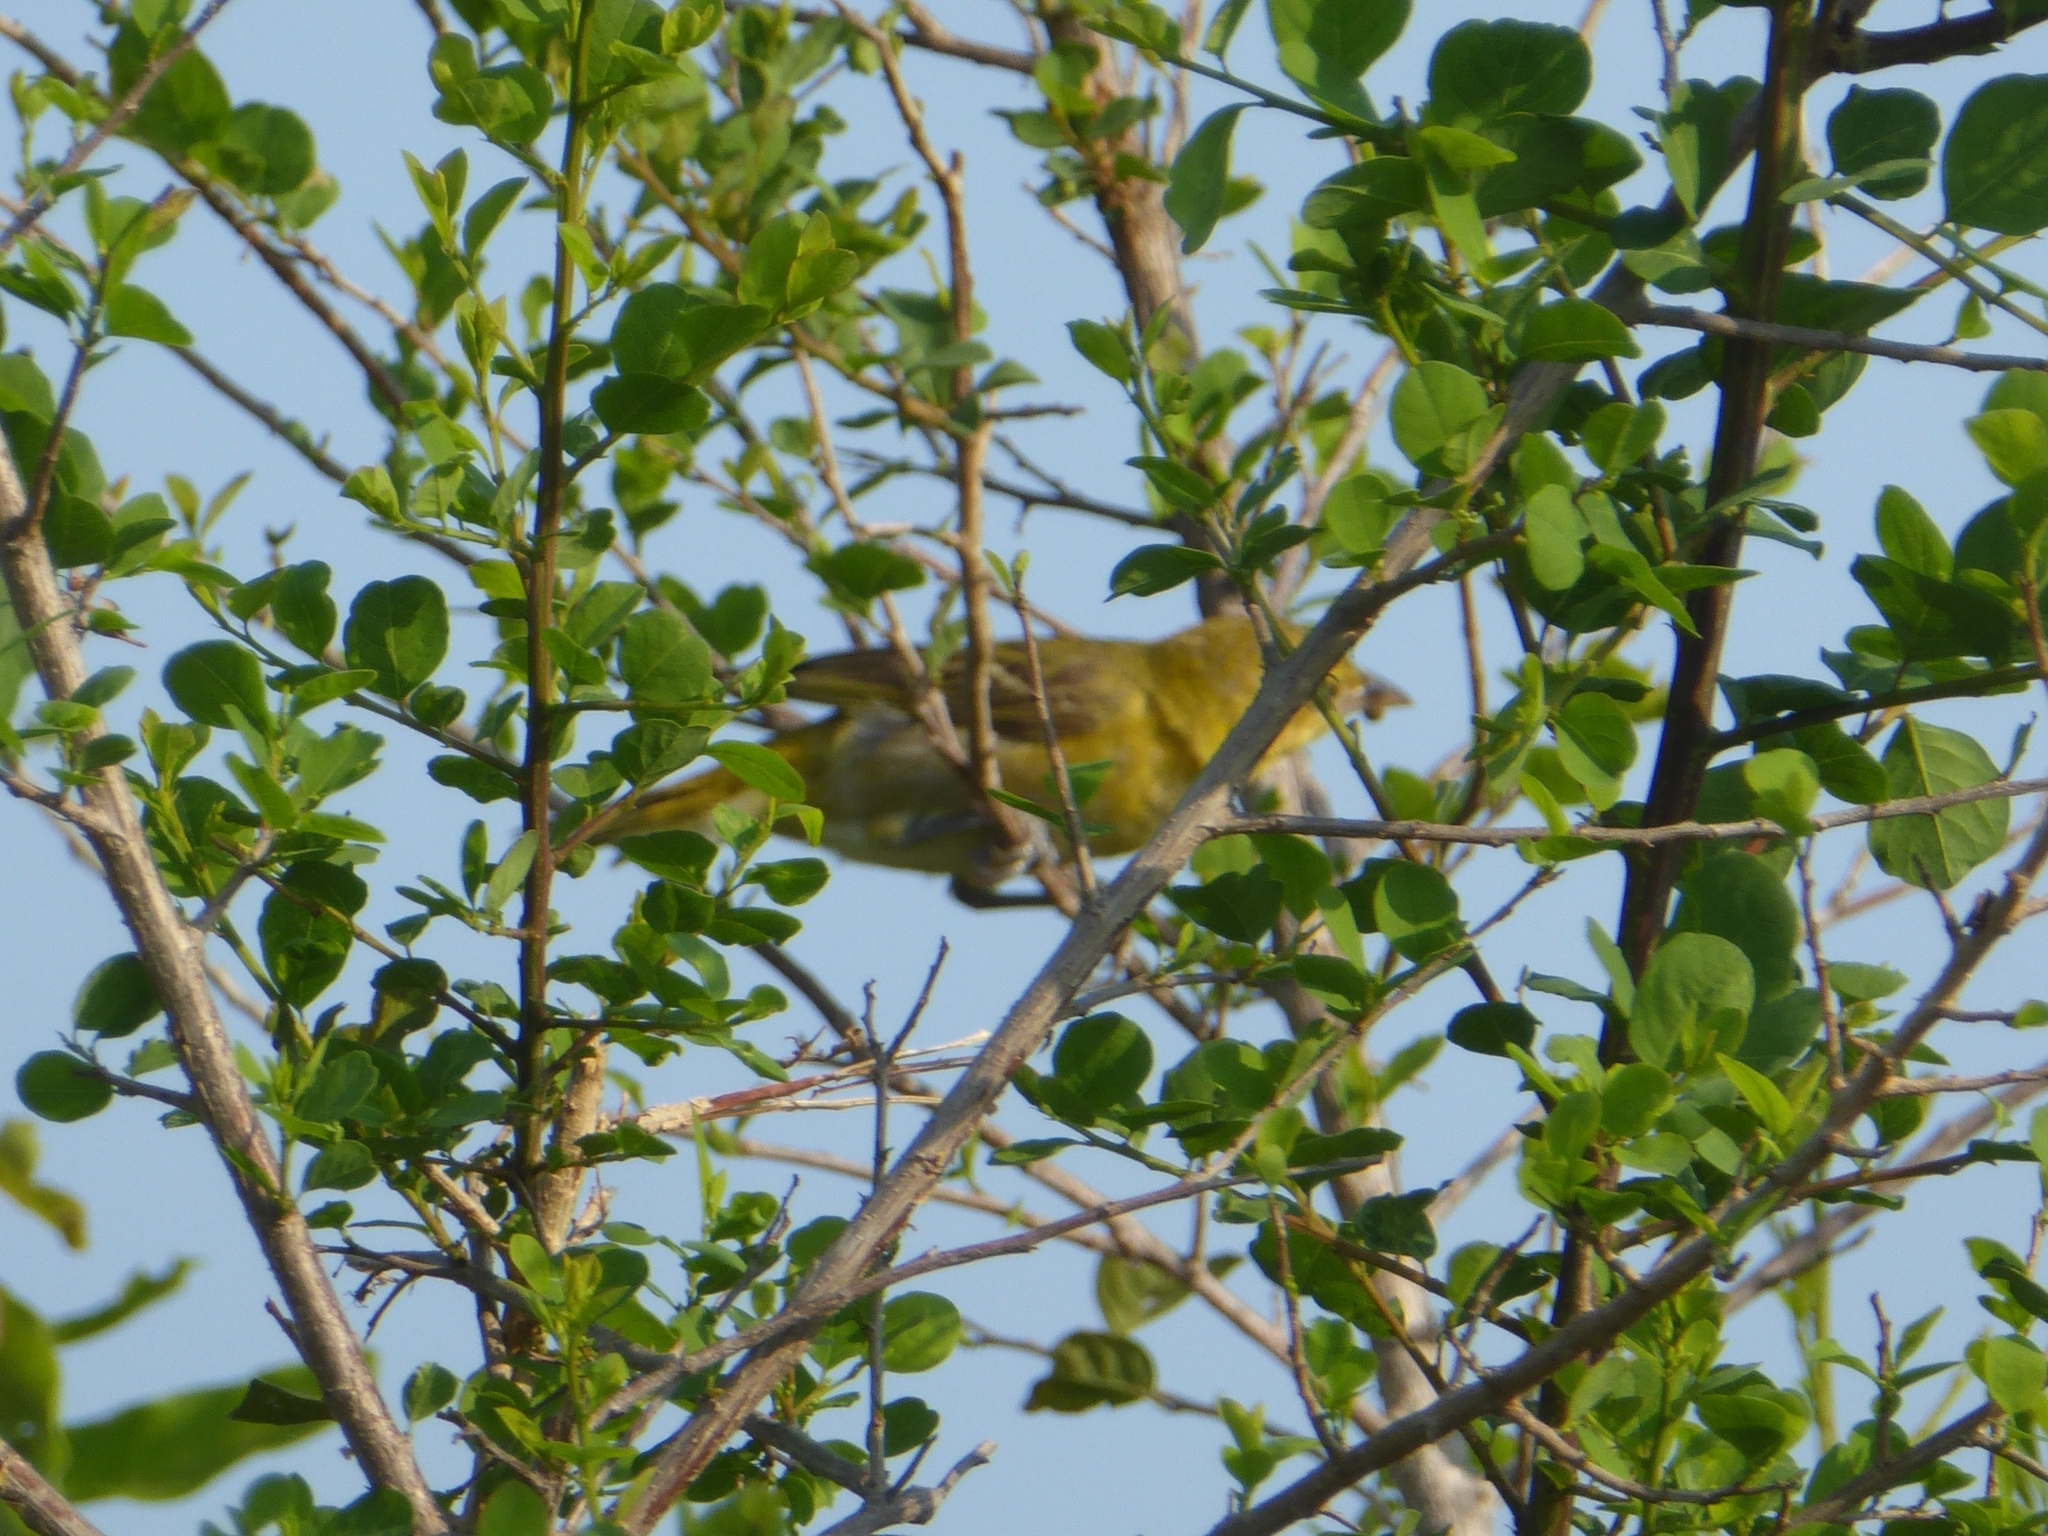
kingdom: Animalia
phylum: Chordata
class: Aves
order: Passeriformes
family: Ploceidae
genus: Ploceus
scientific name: Ploceus intermedius
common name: Lesser masked weaver
